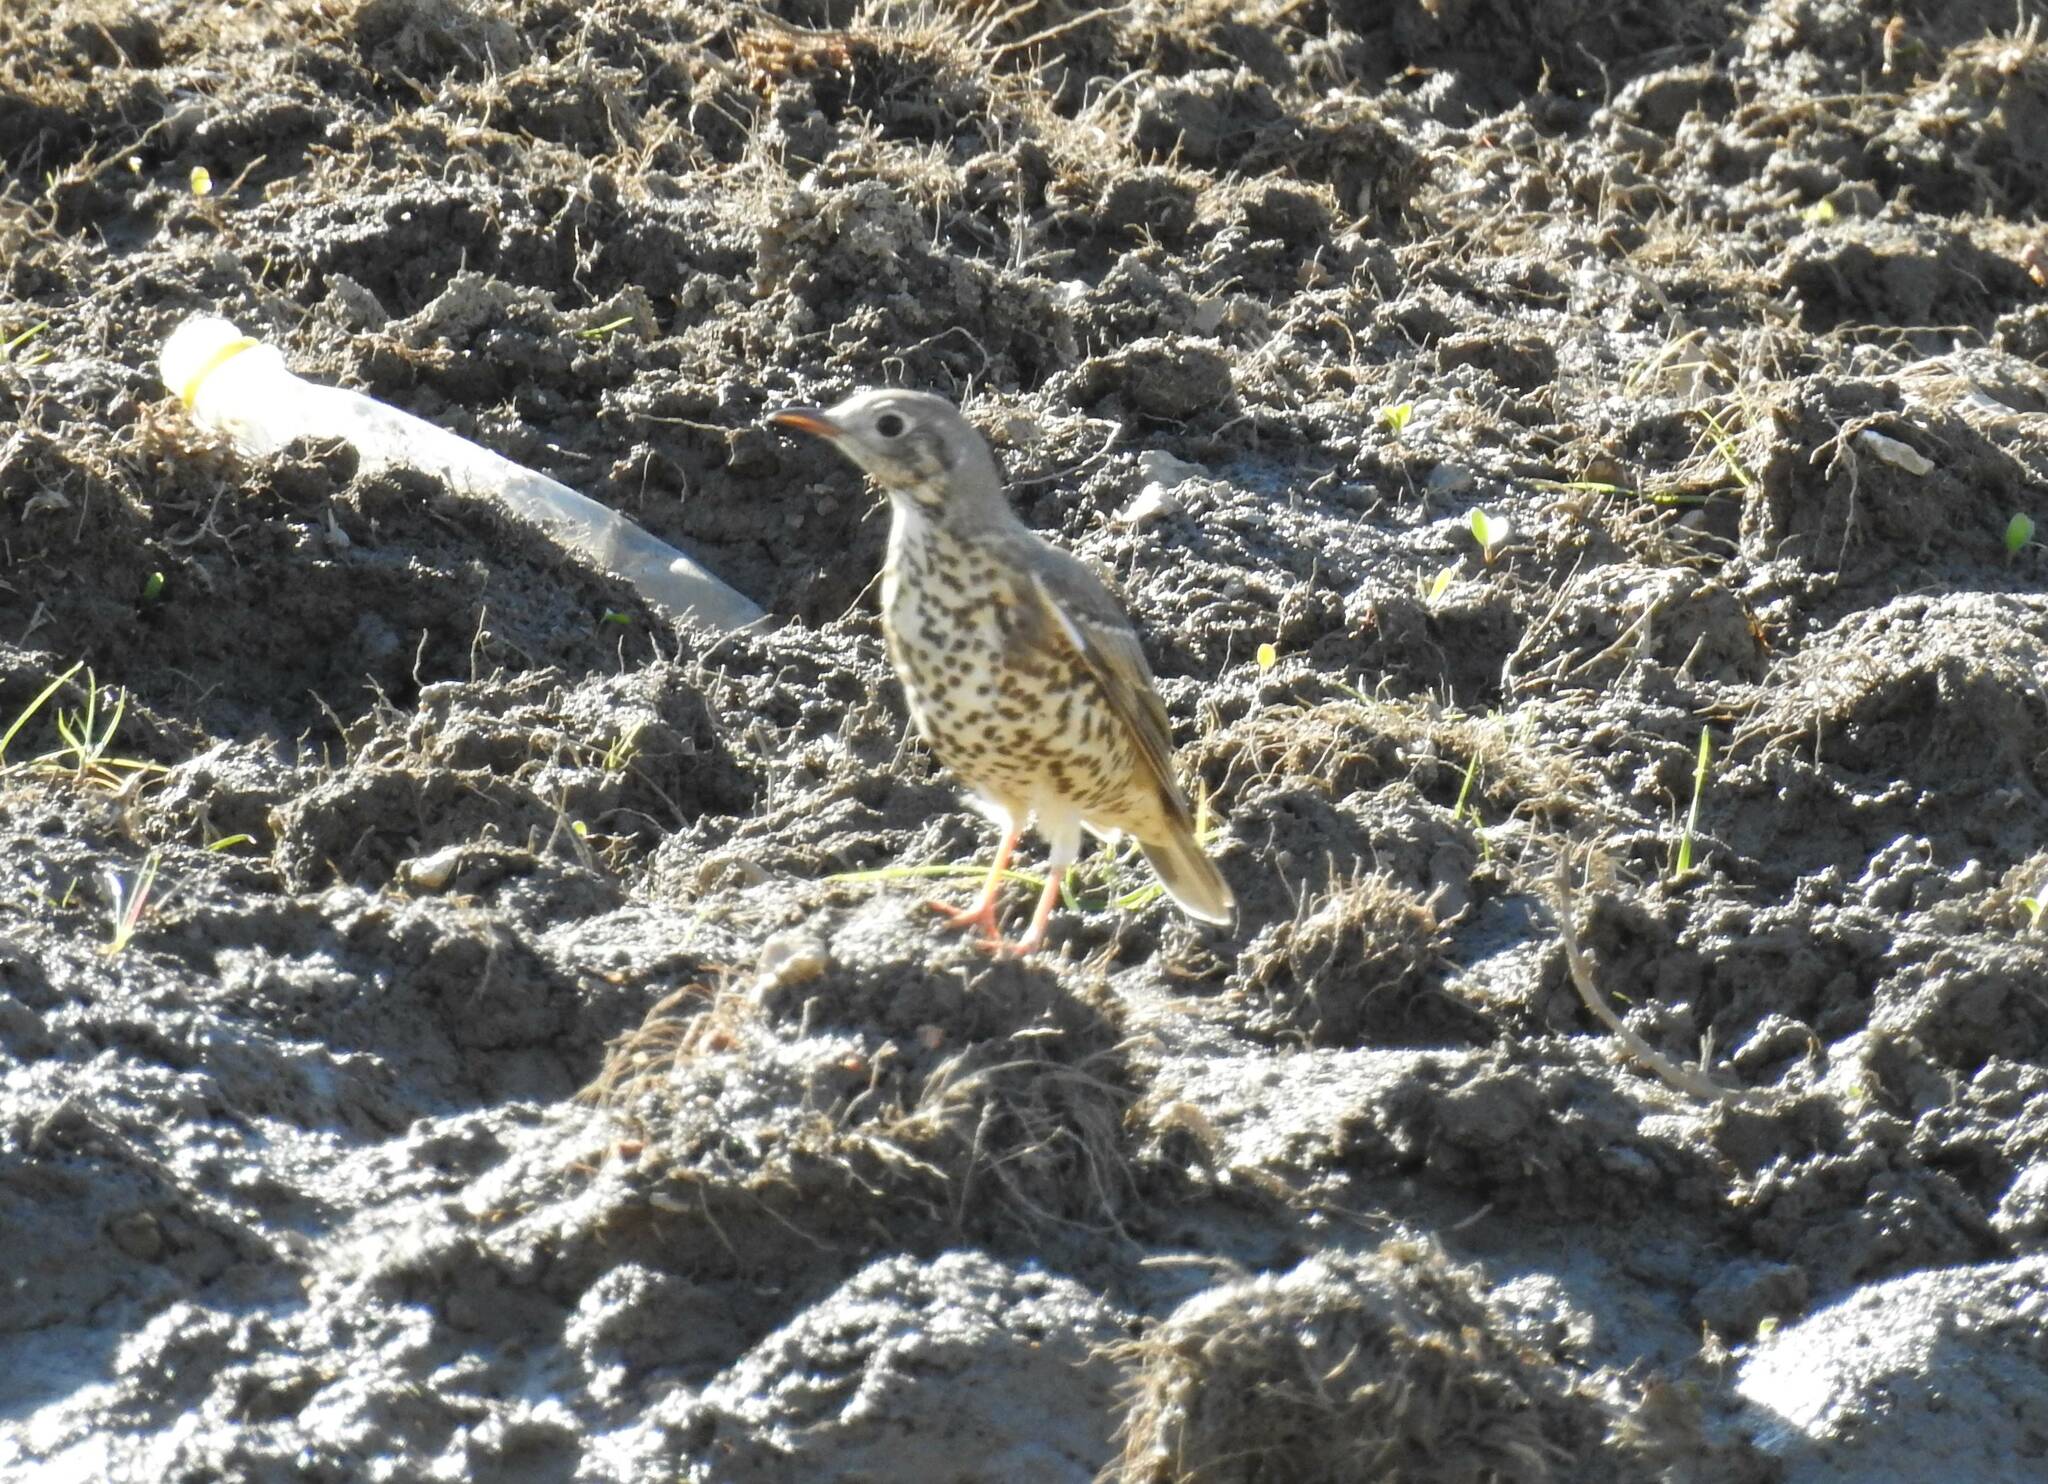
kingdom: Animalia
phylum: Chordata
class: Aves
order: Passeriformes
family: Turdidae
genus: Turdus
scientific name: Turdus viscivorus
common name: Mistle thrush
